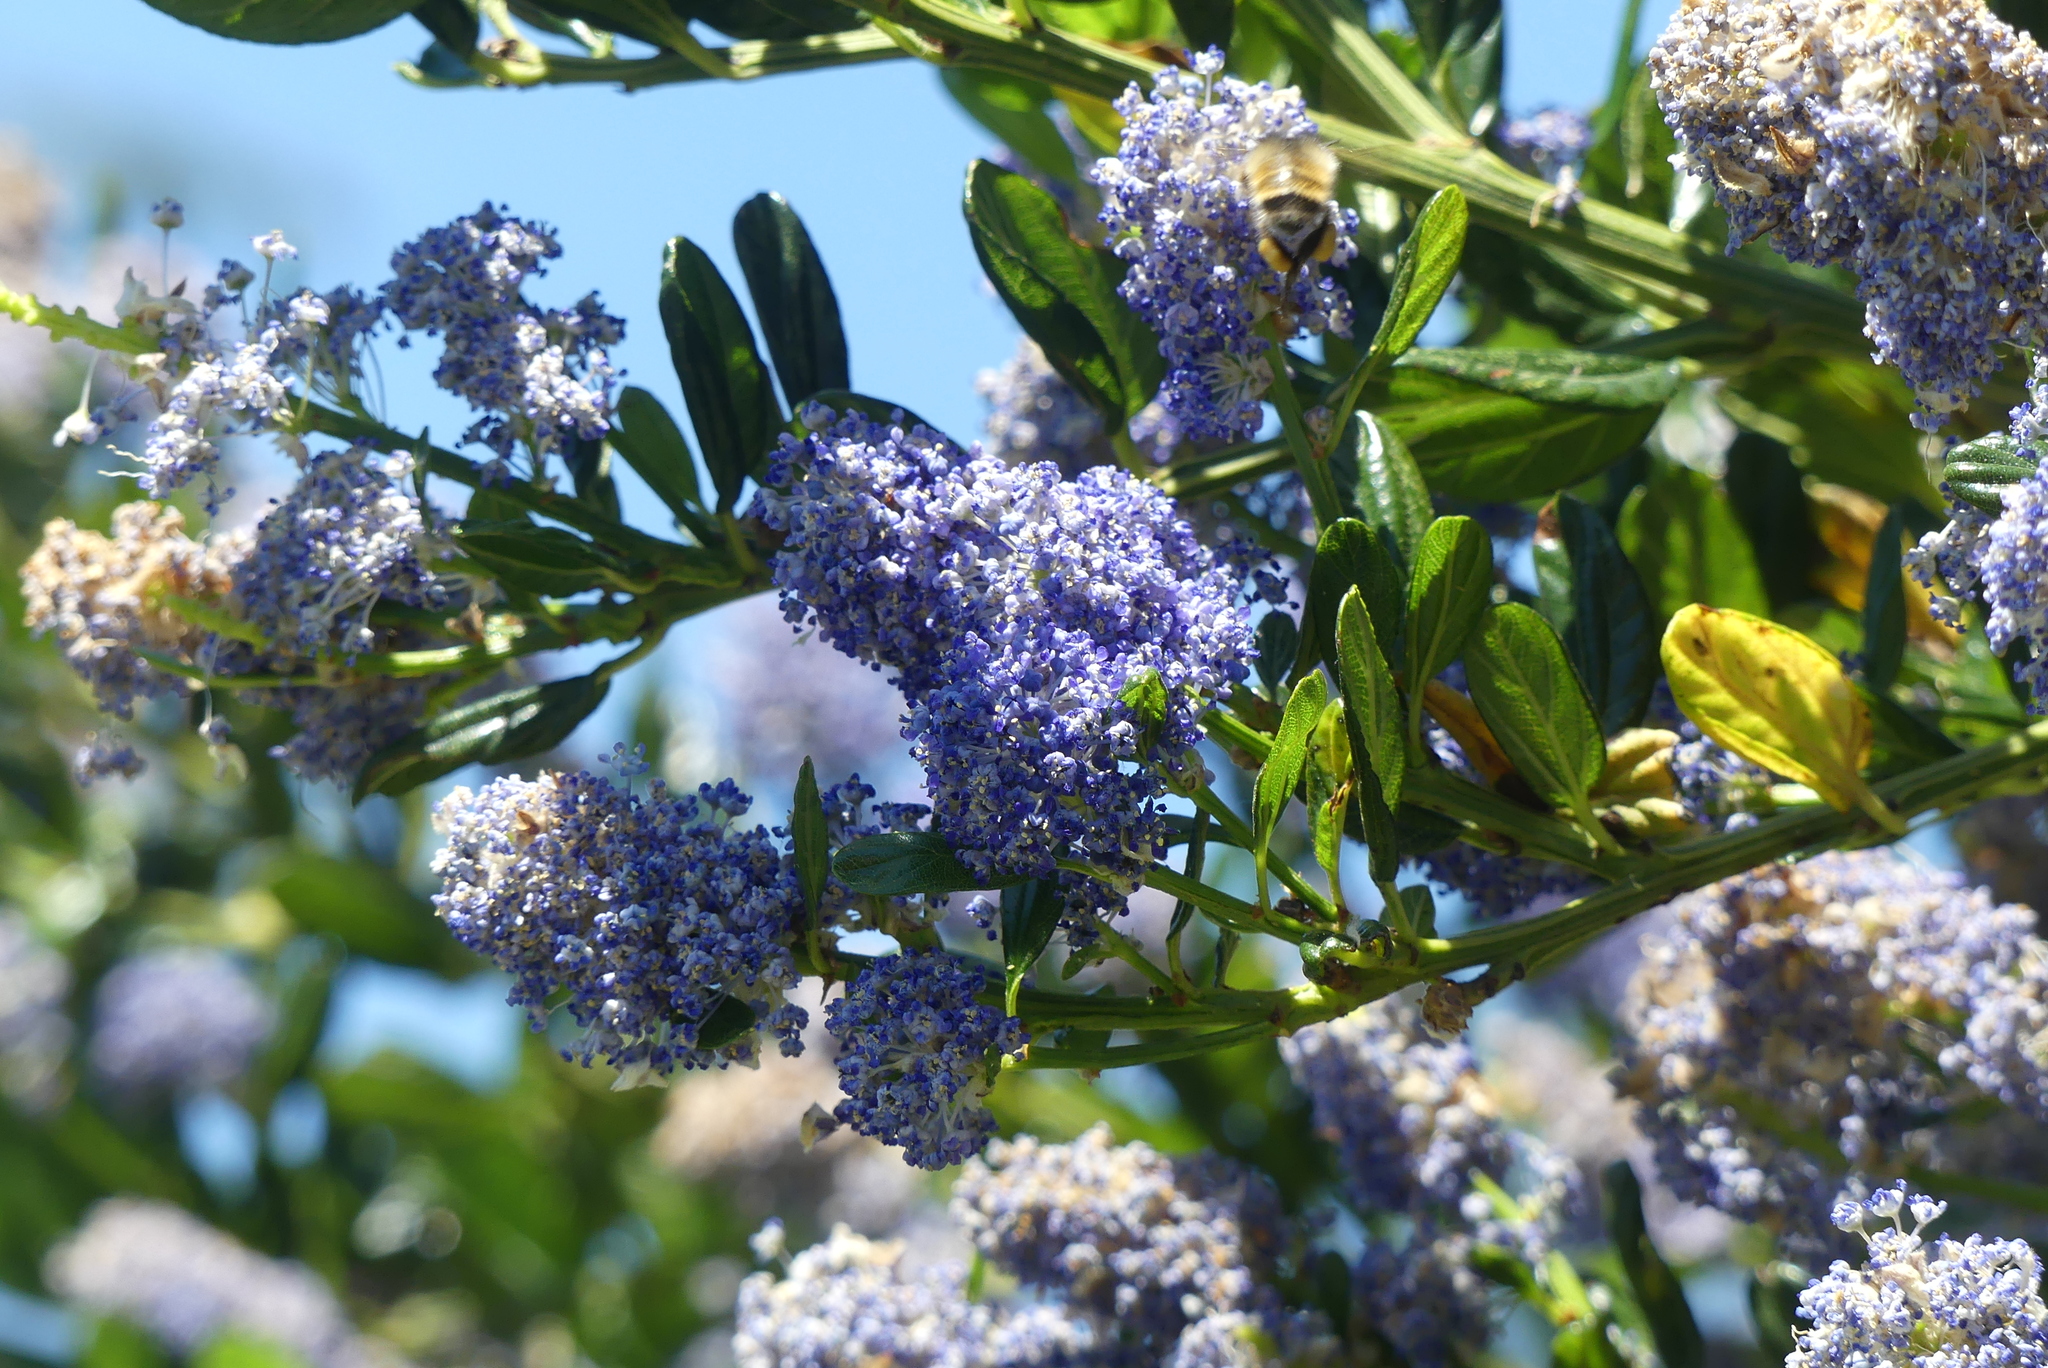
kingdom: Animalia
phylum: Arthropoda
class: Insecta
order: Hymenoptera
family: Apidae
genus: Bombus
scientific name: Bombus flavifrons
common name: Yellow head bumble bee
